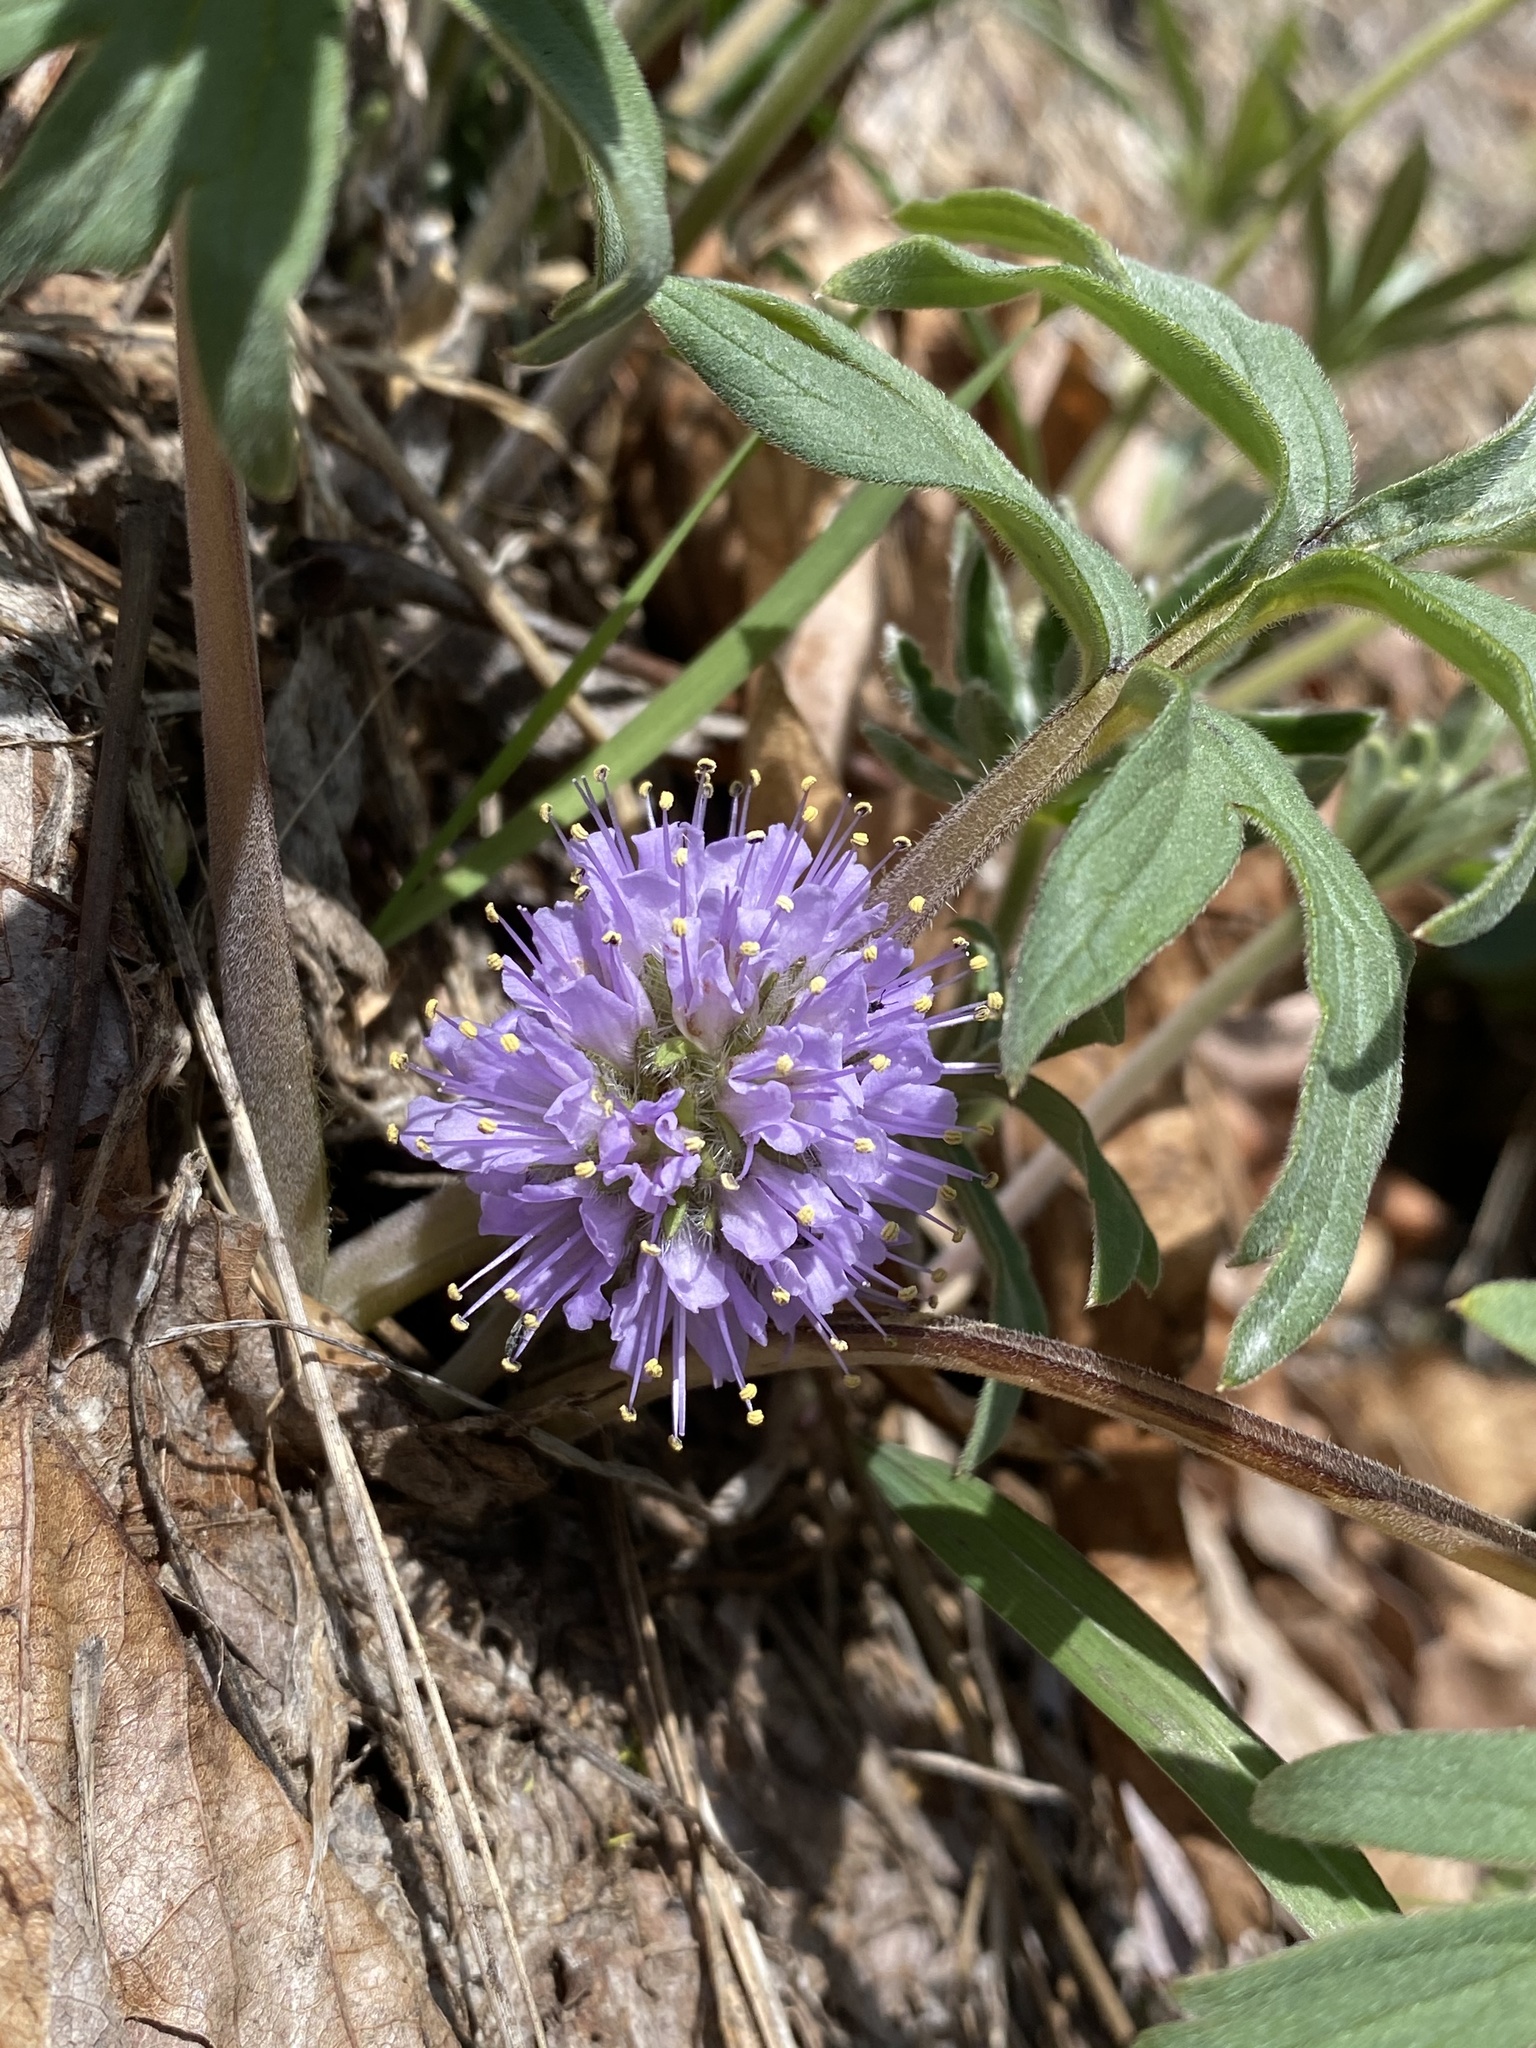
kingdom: Plantae
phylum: Tracheophyta
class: Magnoliopsida
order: Boraginales
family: Hydrophyllaceae
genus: Hydrophyllum
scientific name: Hydrophyllum capitatum
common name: Woollen-breeches
